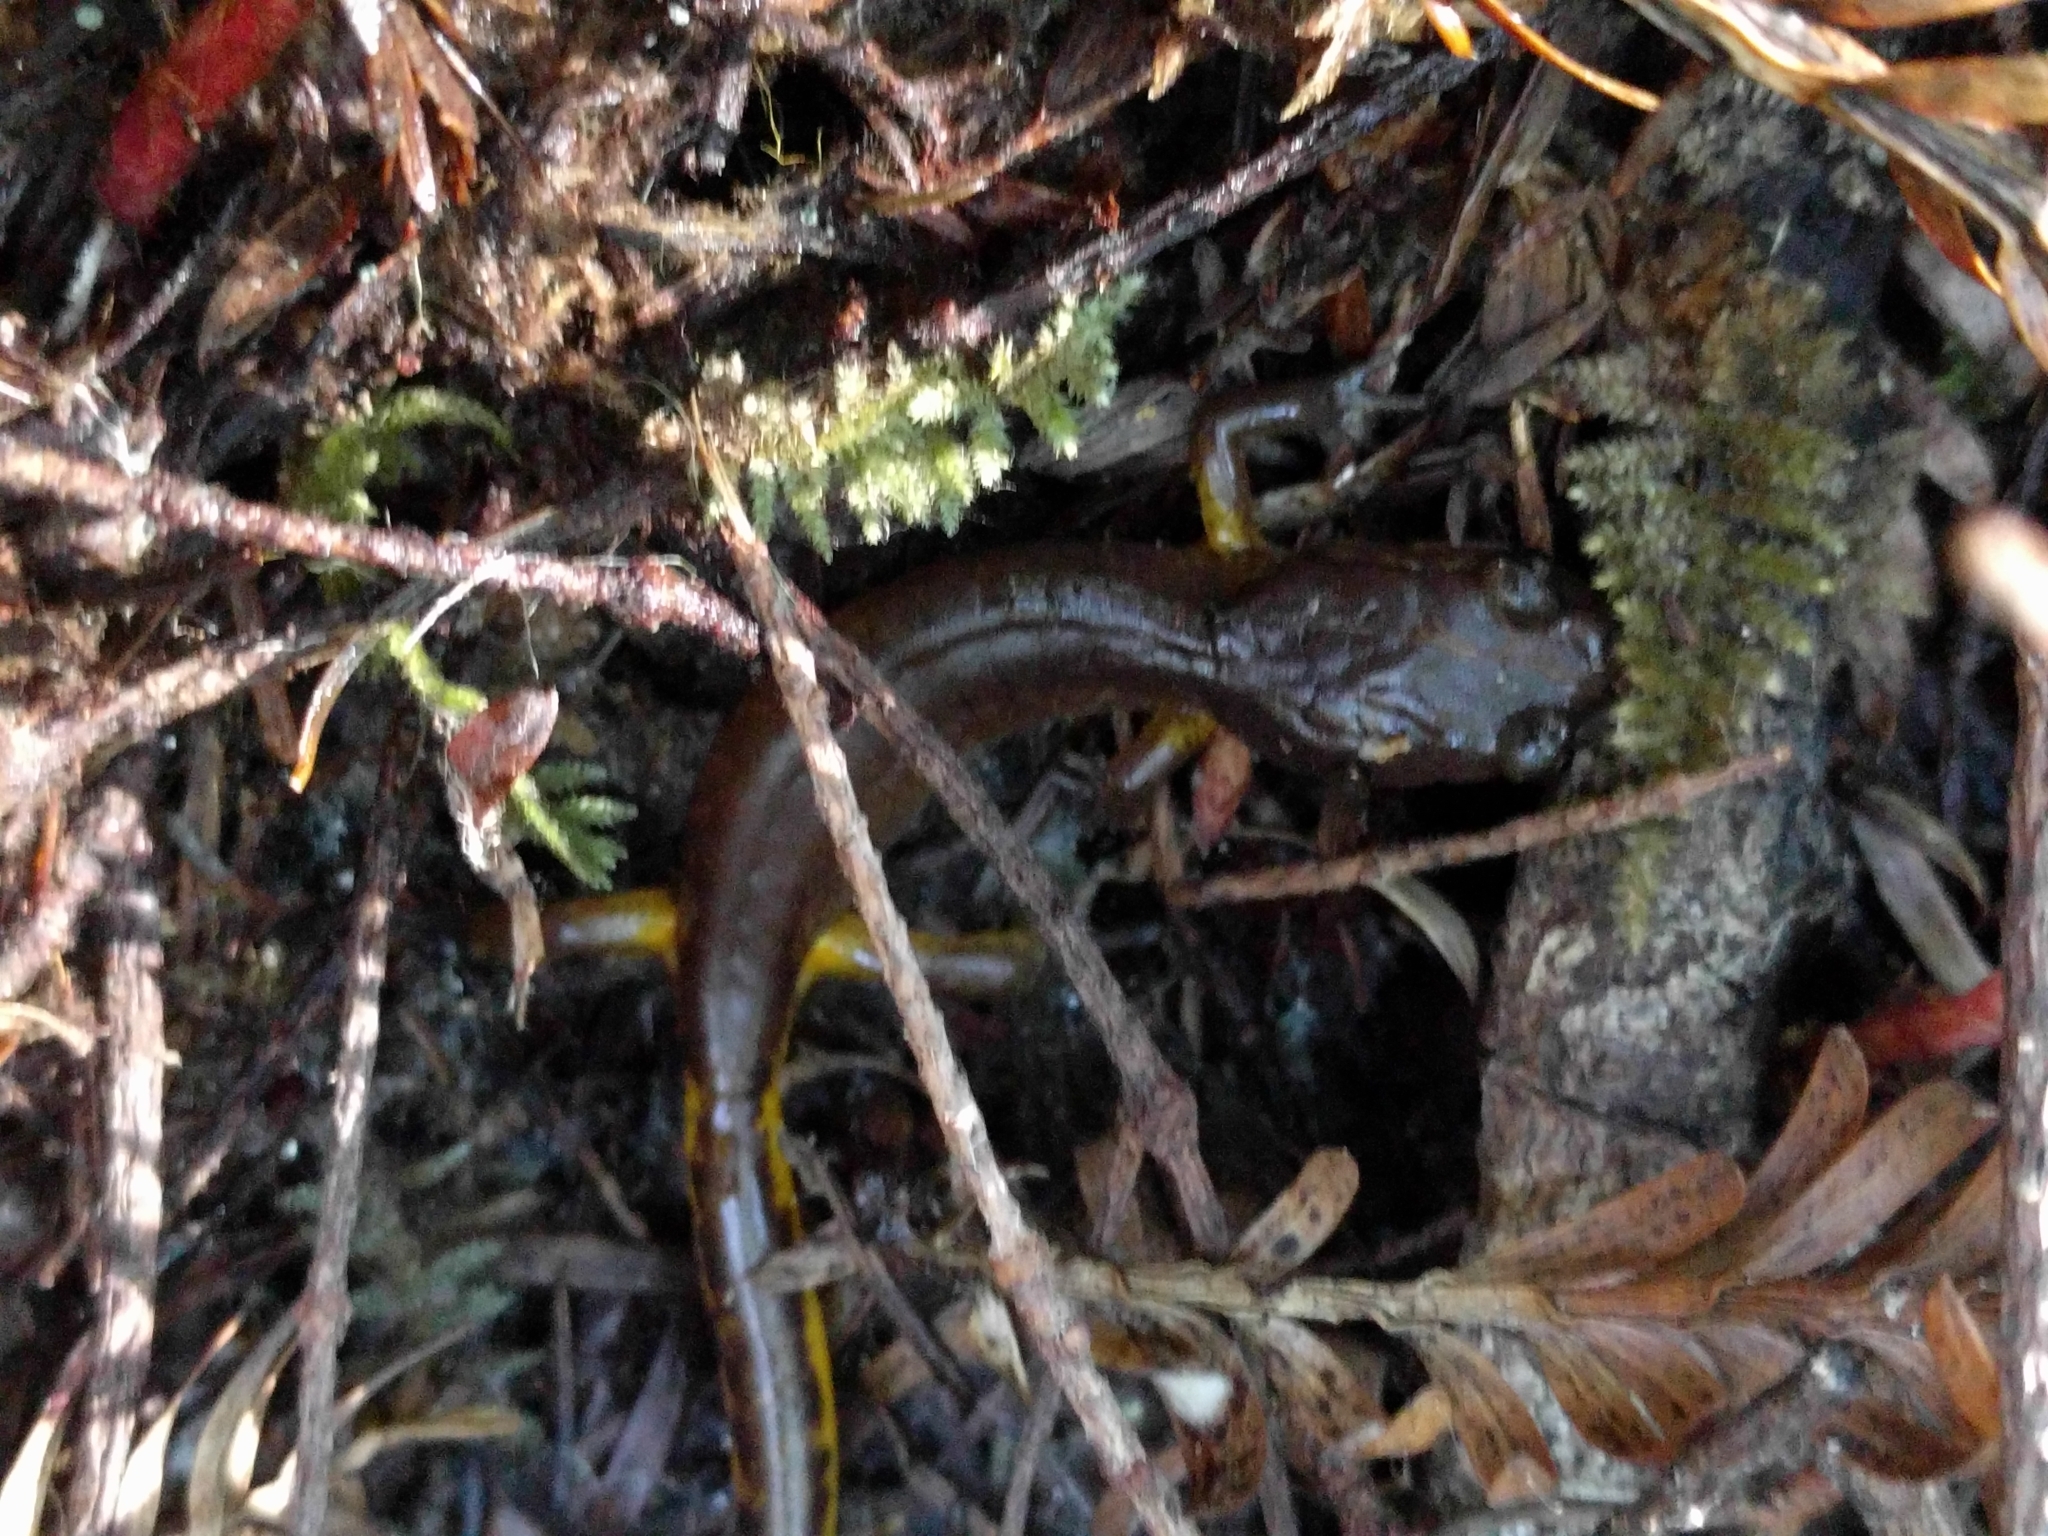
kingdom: Animalia
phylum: Chordata
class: Amphibia
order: Caudata
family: Plethodontidae
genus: Ensatina
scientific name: Ensatina eschscholtzii
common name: Ensatina
